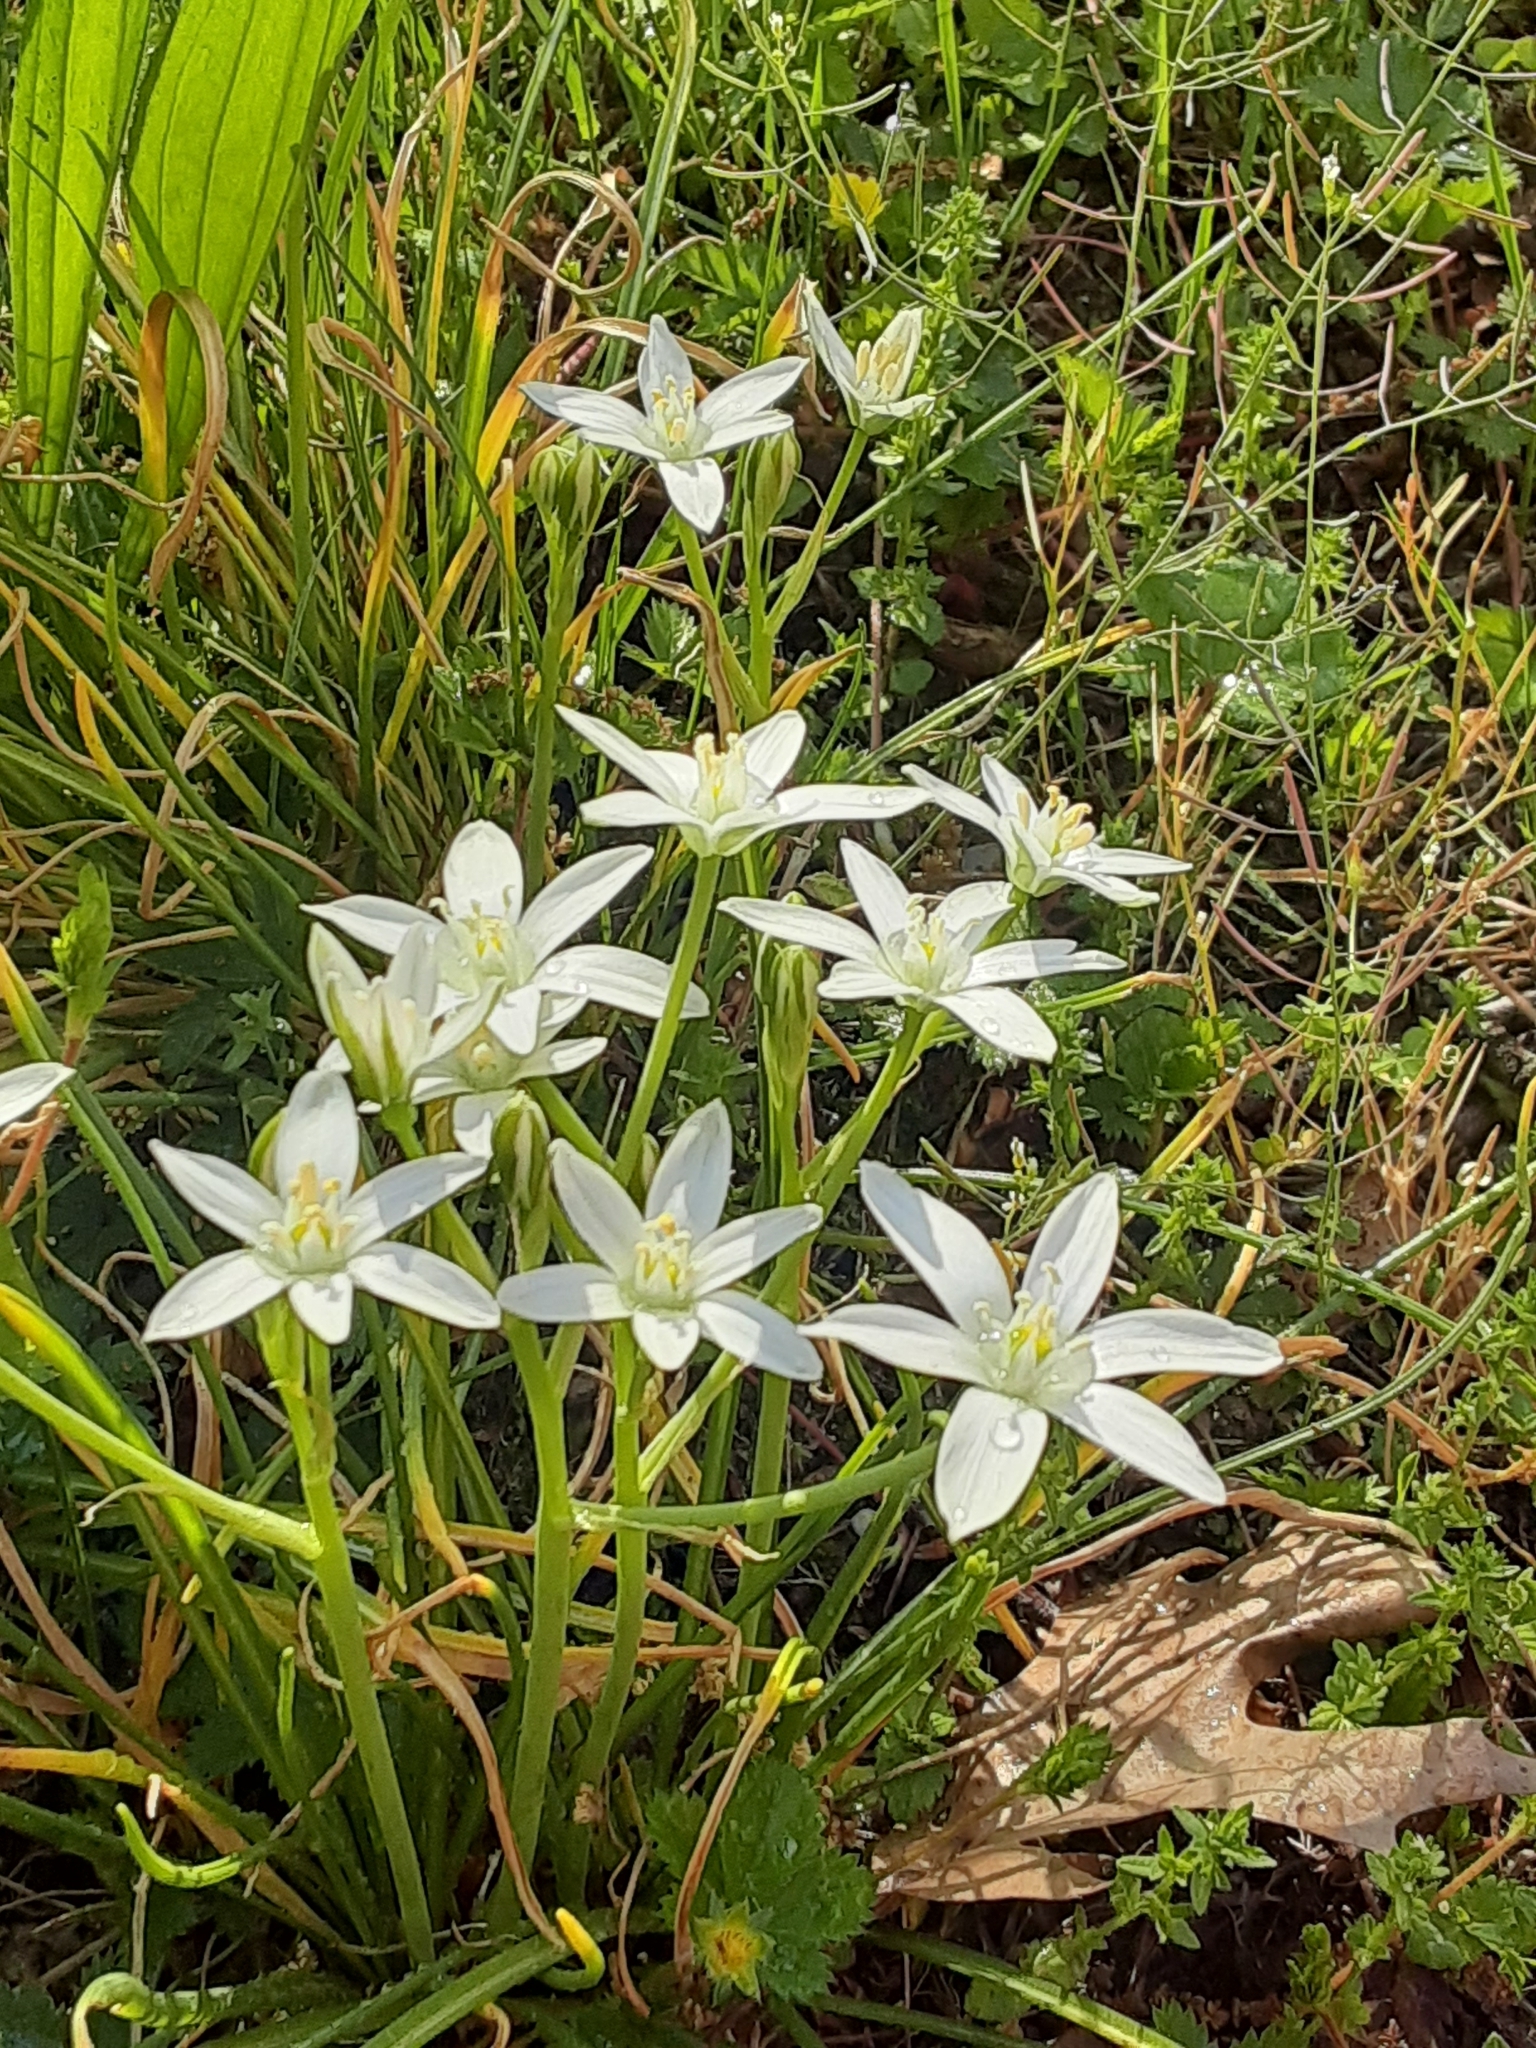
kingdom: Plantae
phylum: Tracheophyta
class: Liliopsida
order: Asparagales
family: Asparagaceae
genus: Ornithogalum
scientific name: Ornithogalum umbellatum
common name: Garden star-of-bethlehem
